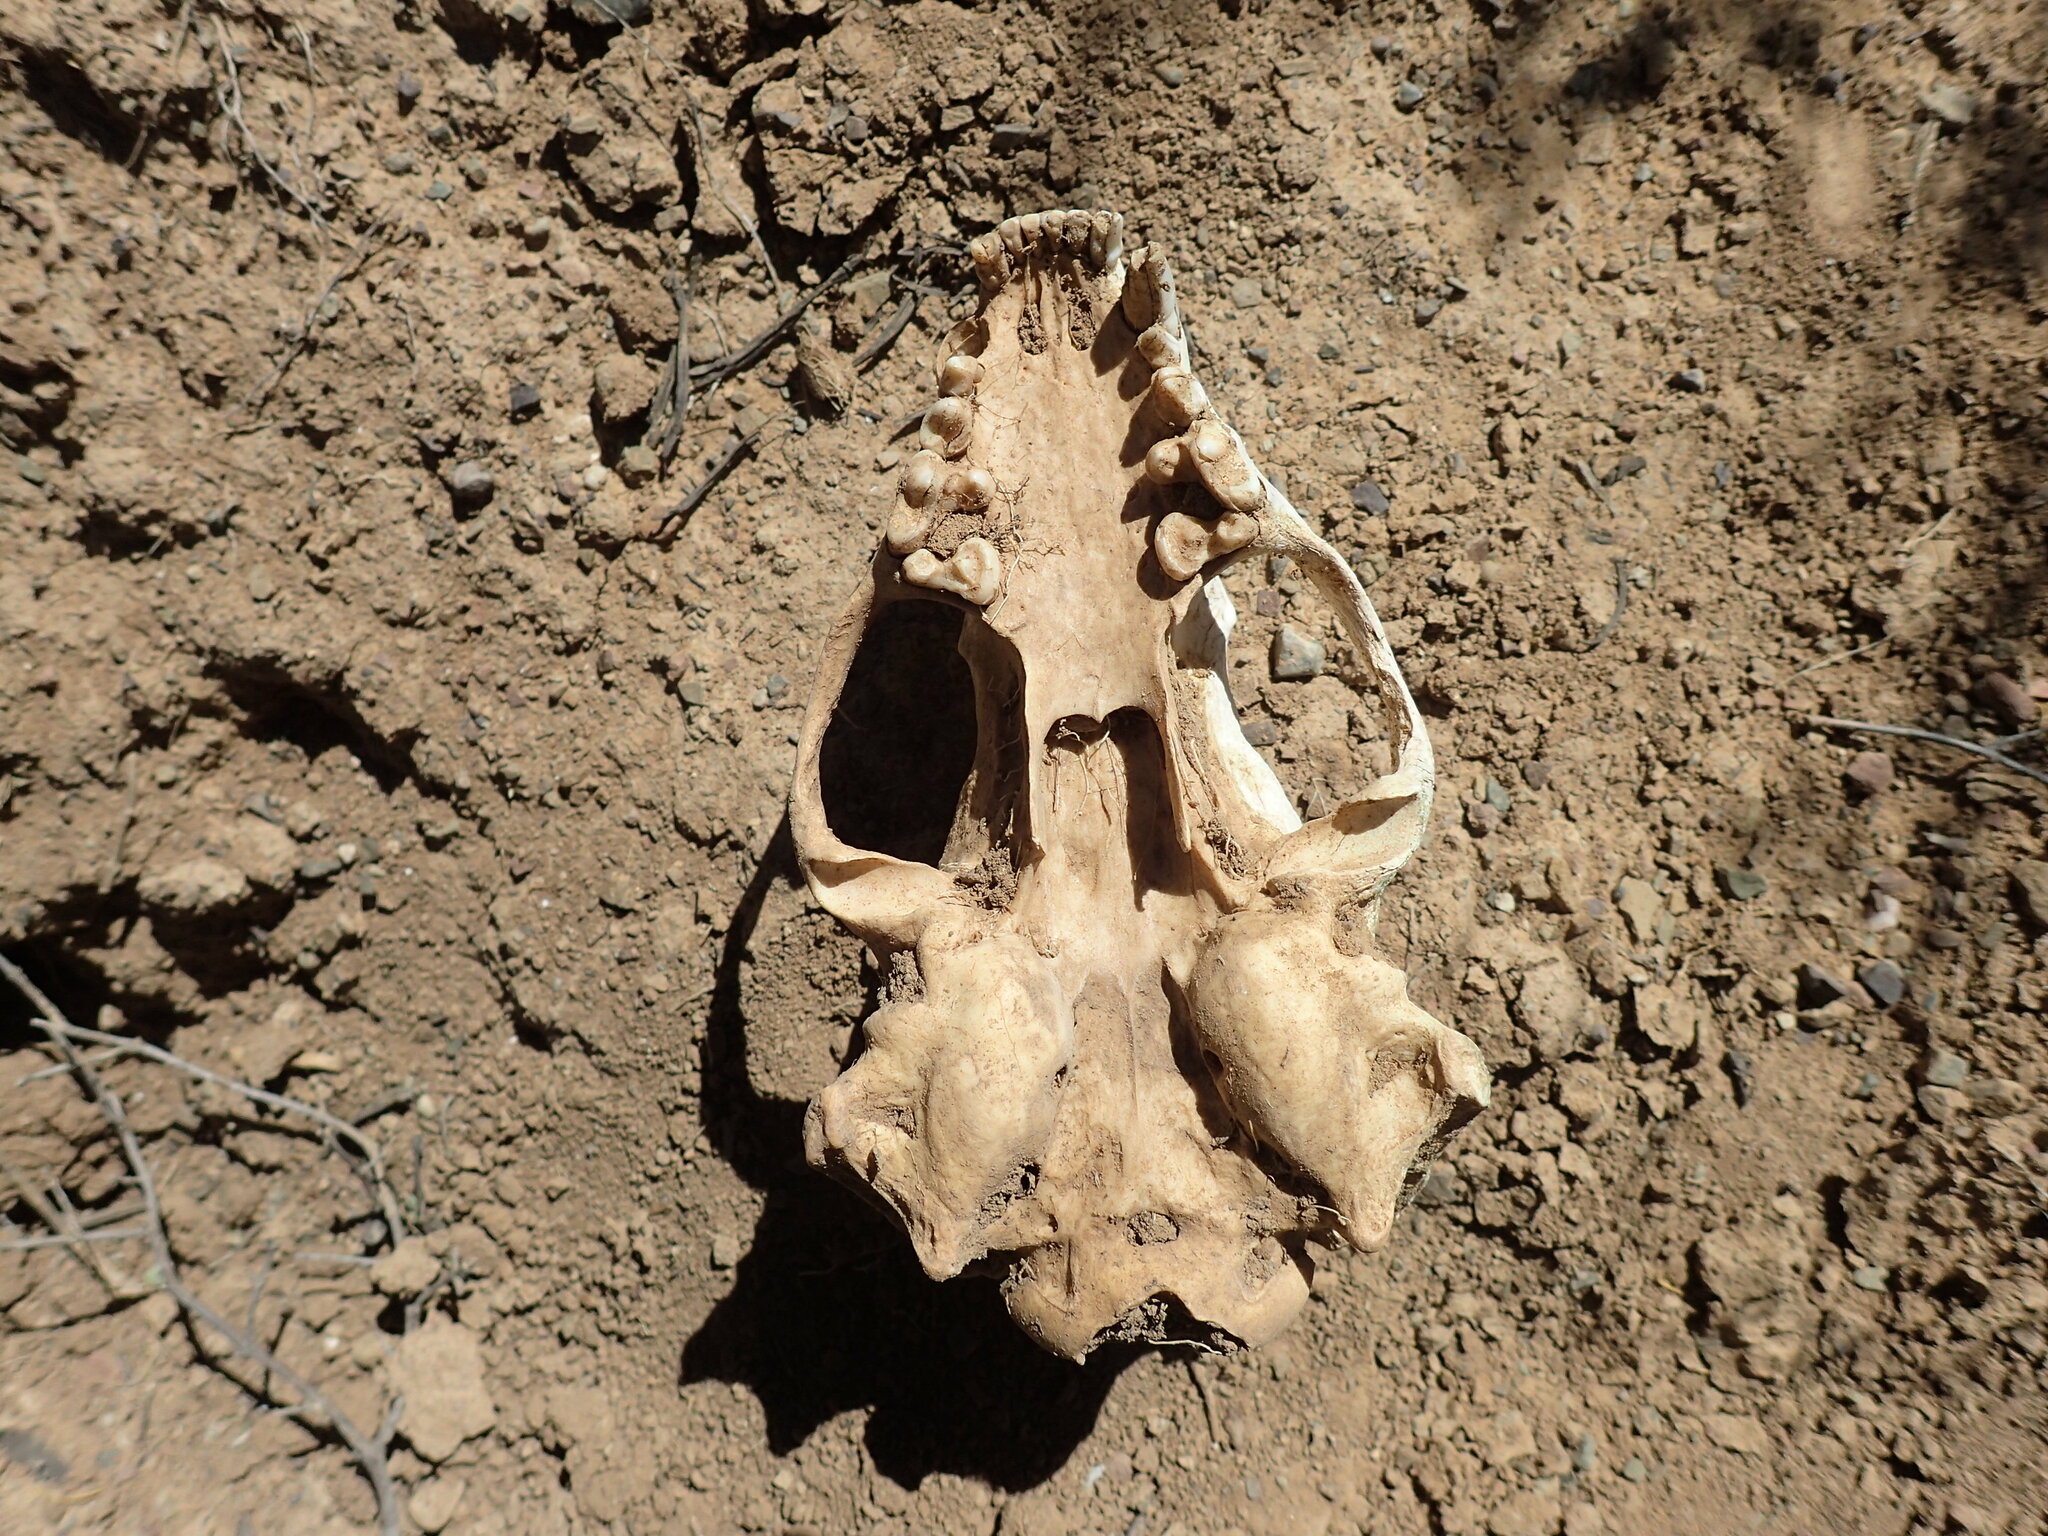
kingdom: Animalia
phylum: Chordata
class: Mammalia
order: Carnivora
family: Mustelidae
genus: Mellivora
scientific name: Mellivora capensis
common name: Honey badger
